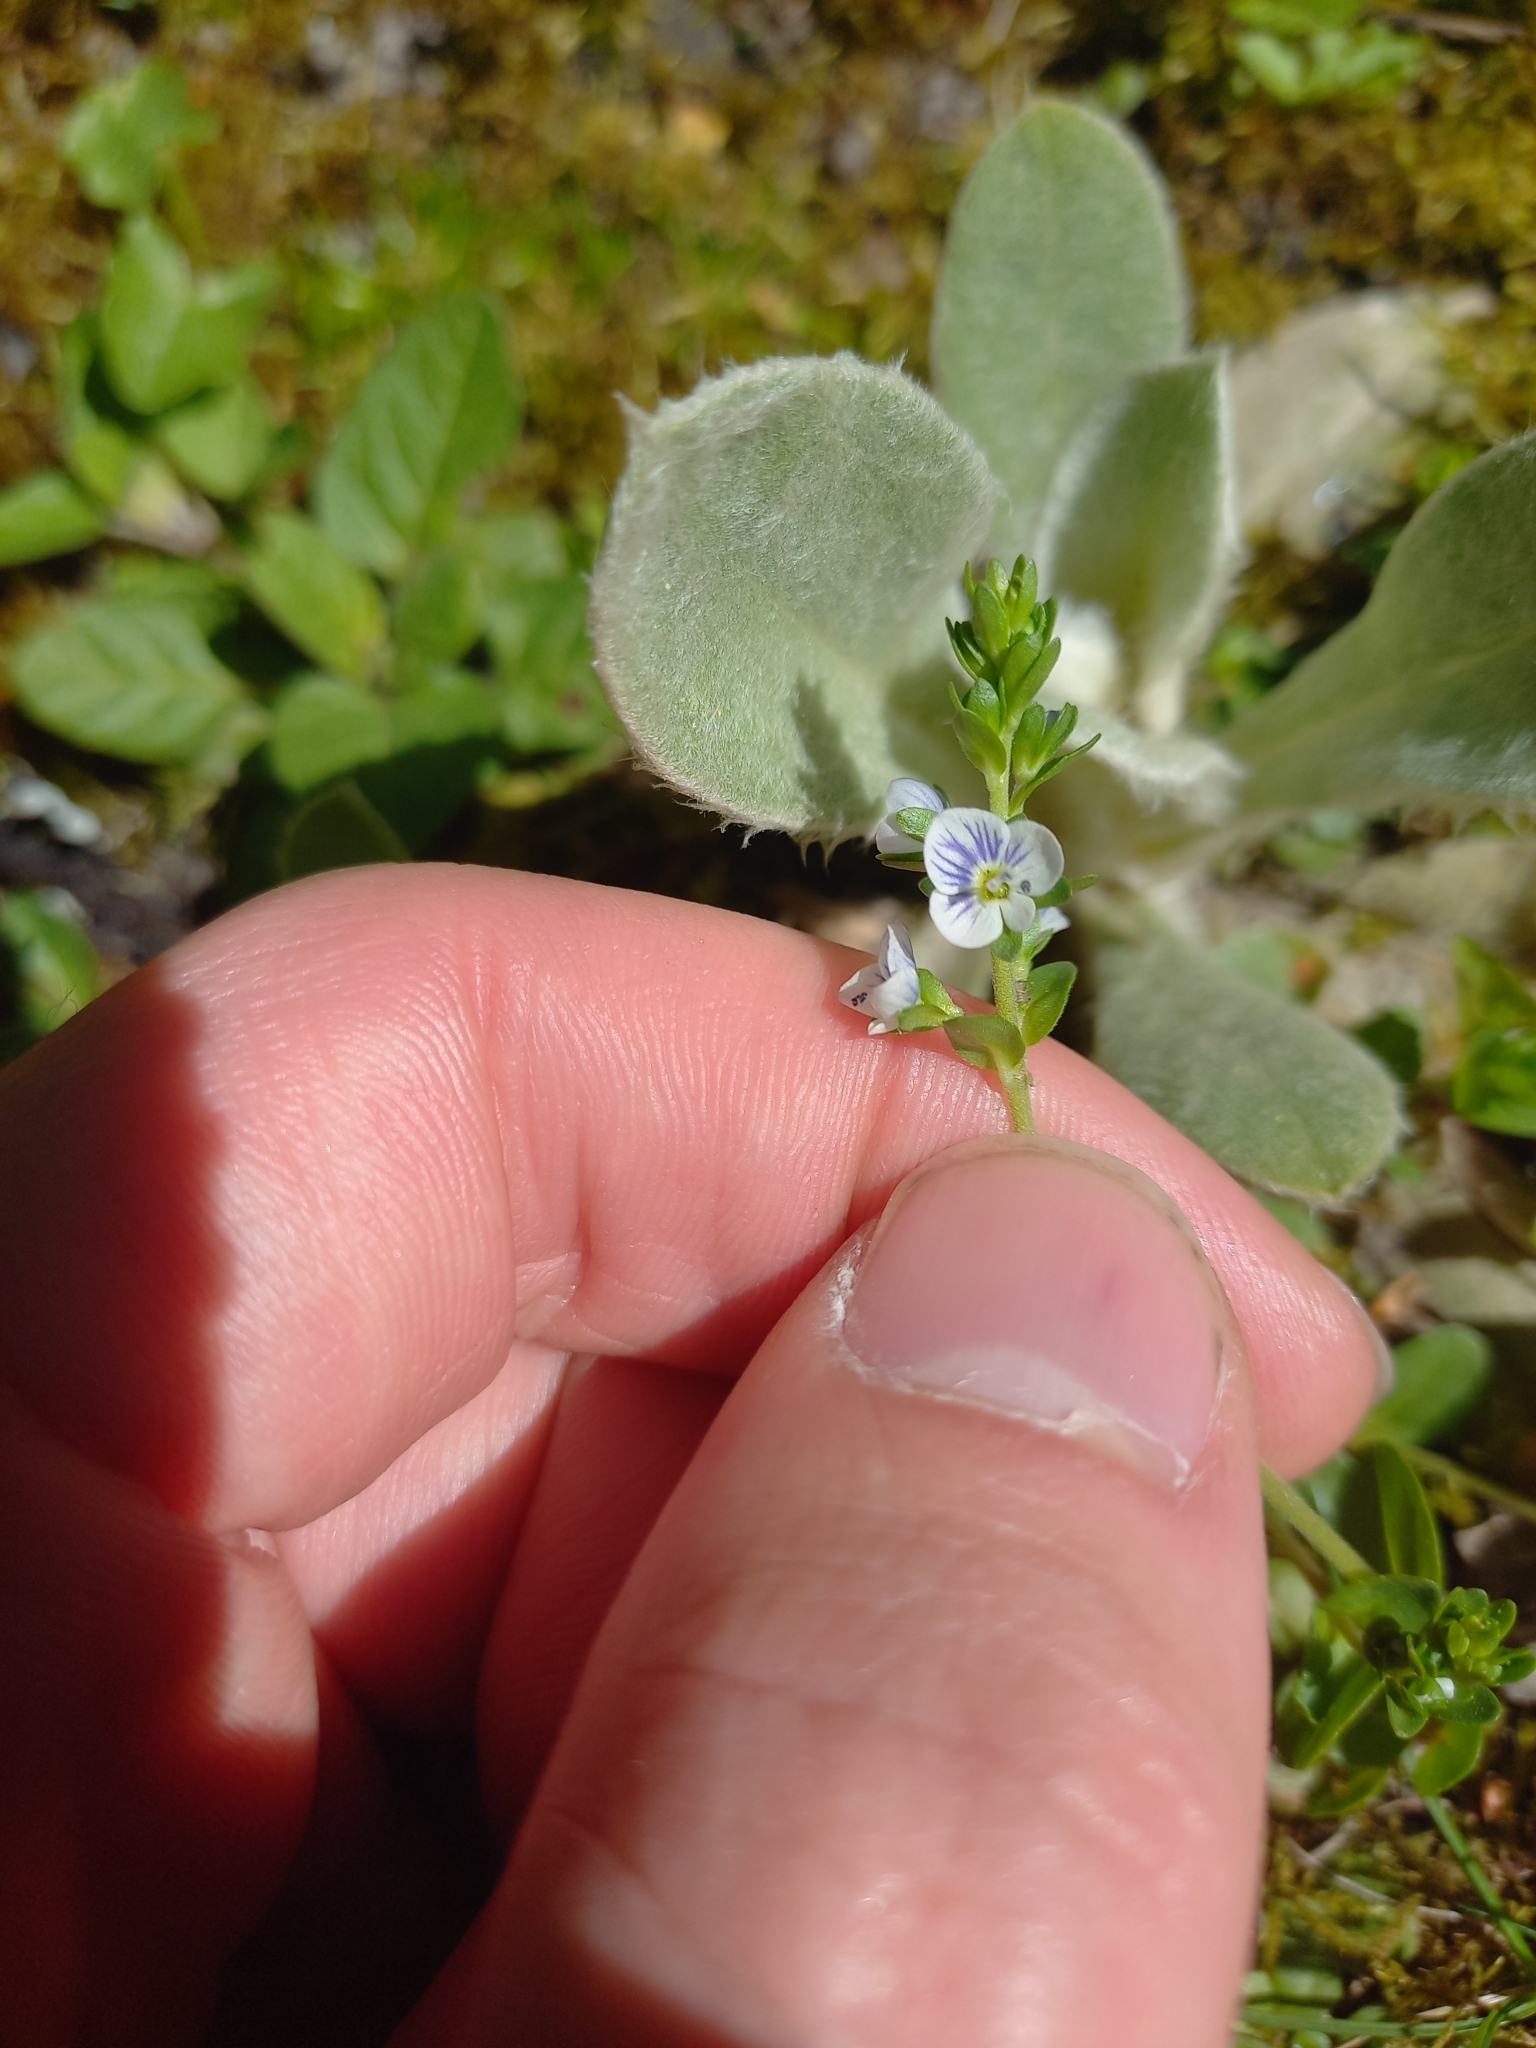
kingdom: Plantae
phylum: Tracheophyta
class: Magnoliopsida
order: Lamiales
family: Plantaginaceae
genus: Veronica
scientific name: Veronica serpyllifolia
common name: Thyme-leaved speedwell
